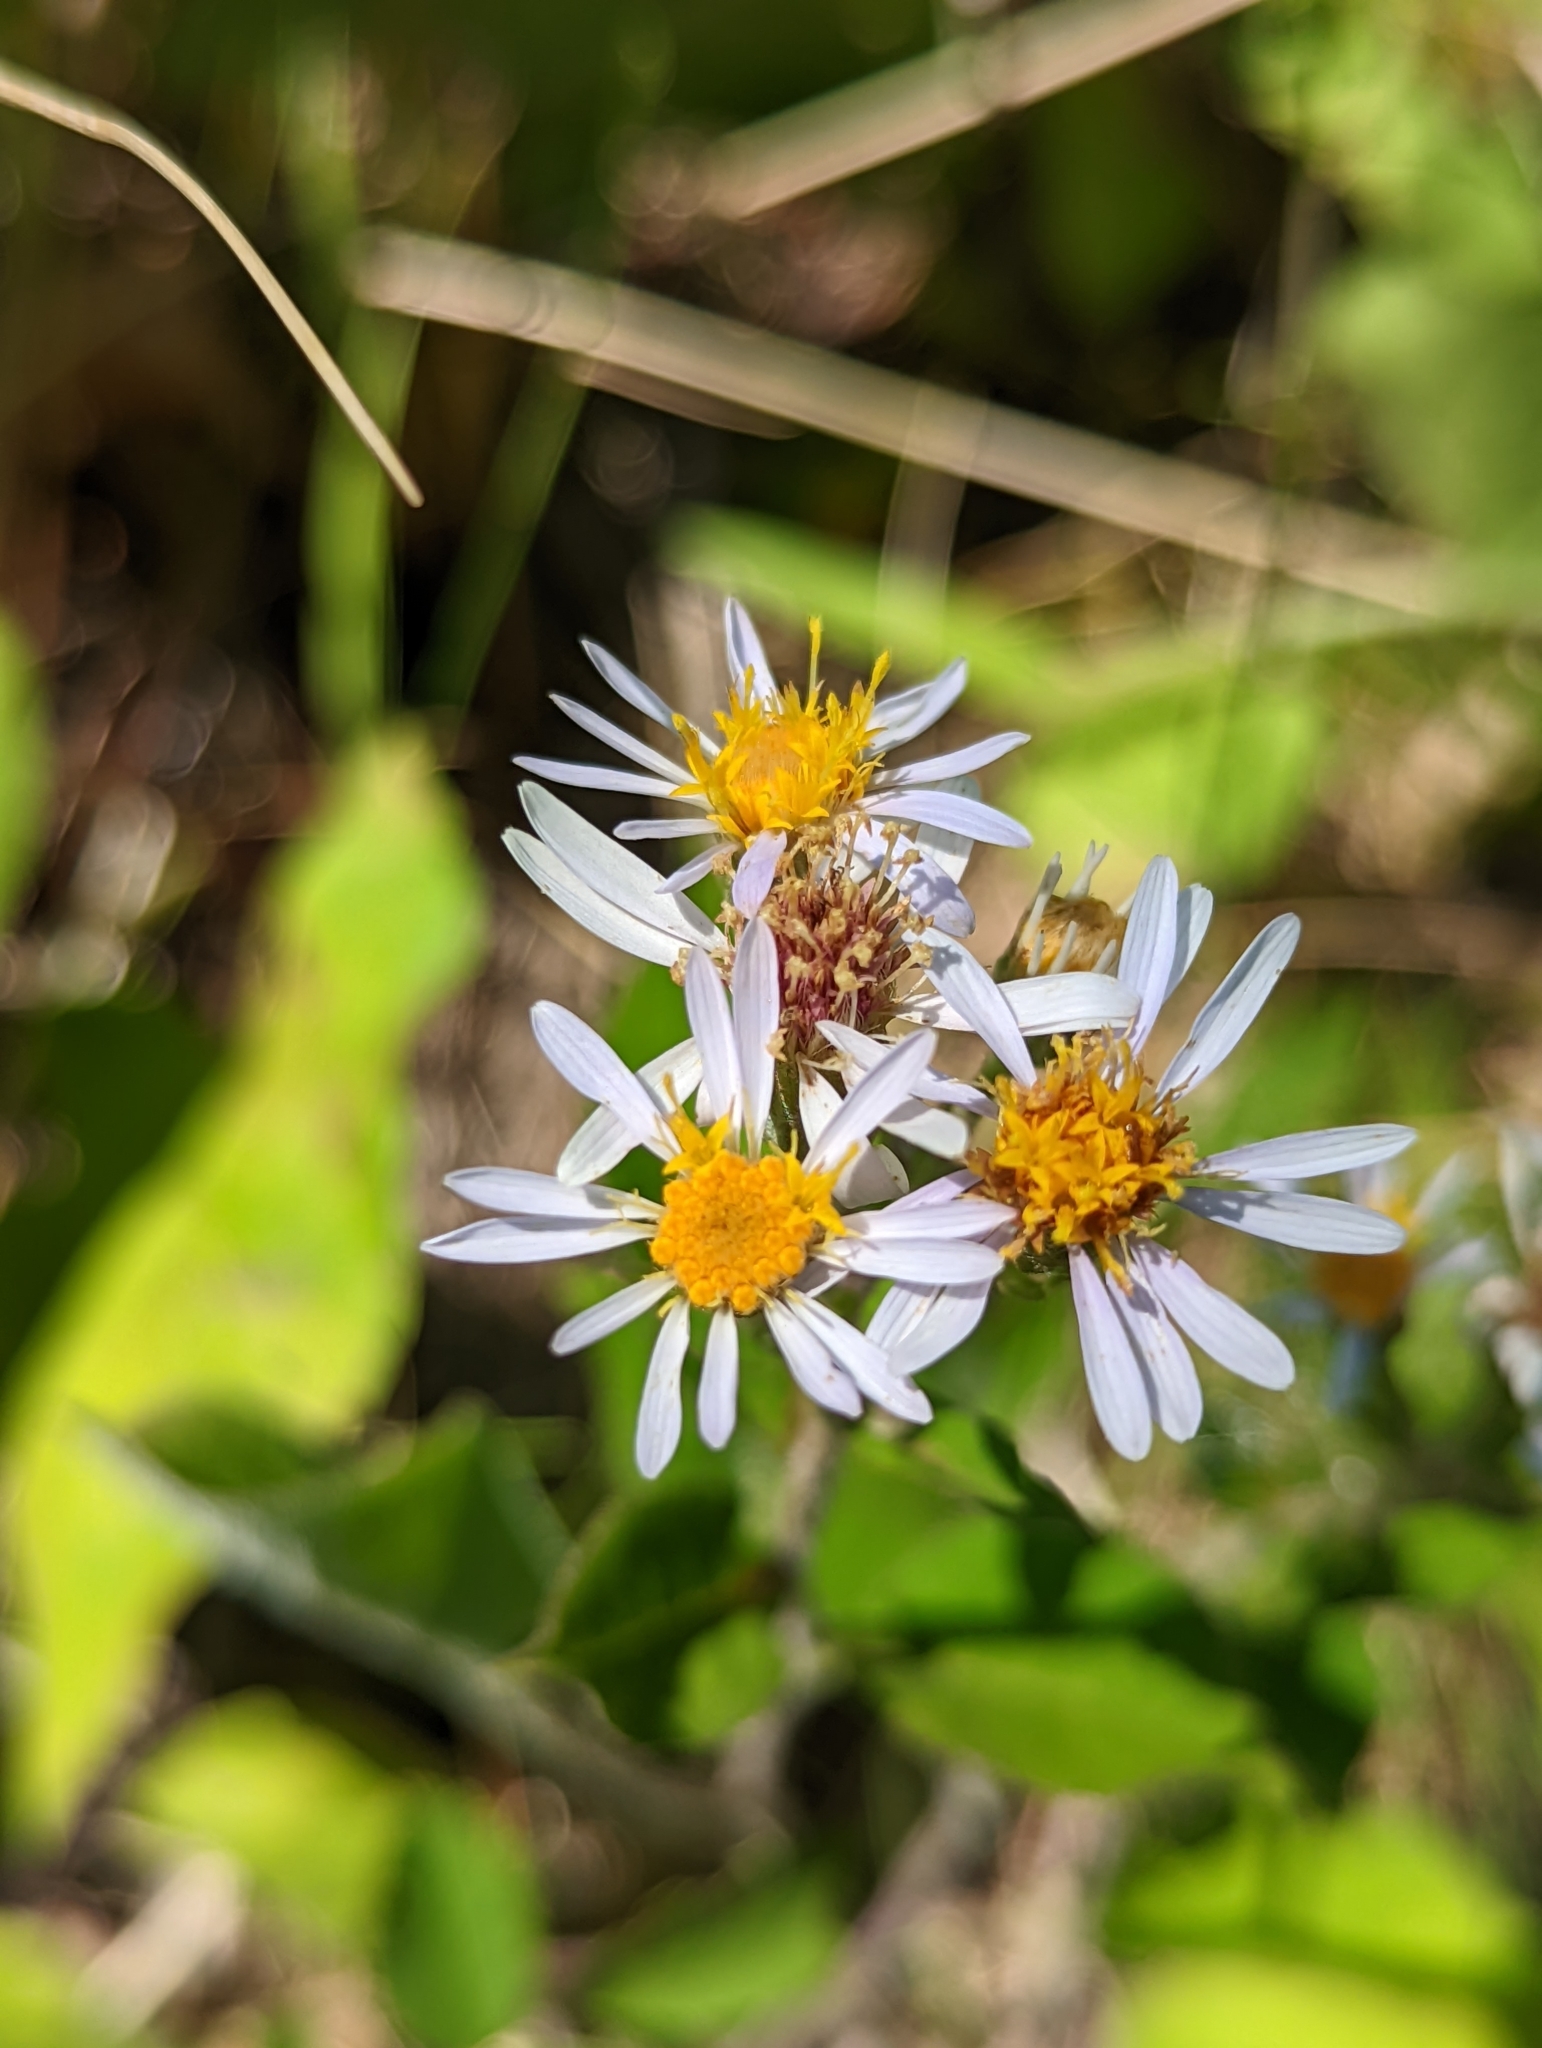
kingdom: Plantae
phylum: Tracheophyta
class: Magnoliopsida
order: Asterales
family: Asteraceae
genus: Eurybia
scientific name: Eurybia macrophylla
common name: Big-leaved aster
